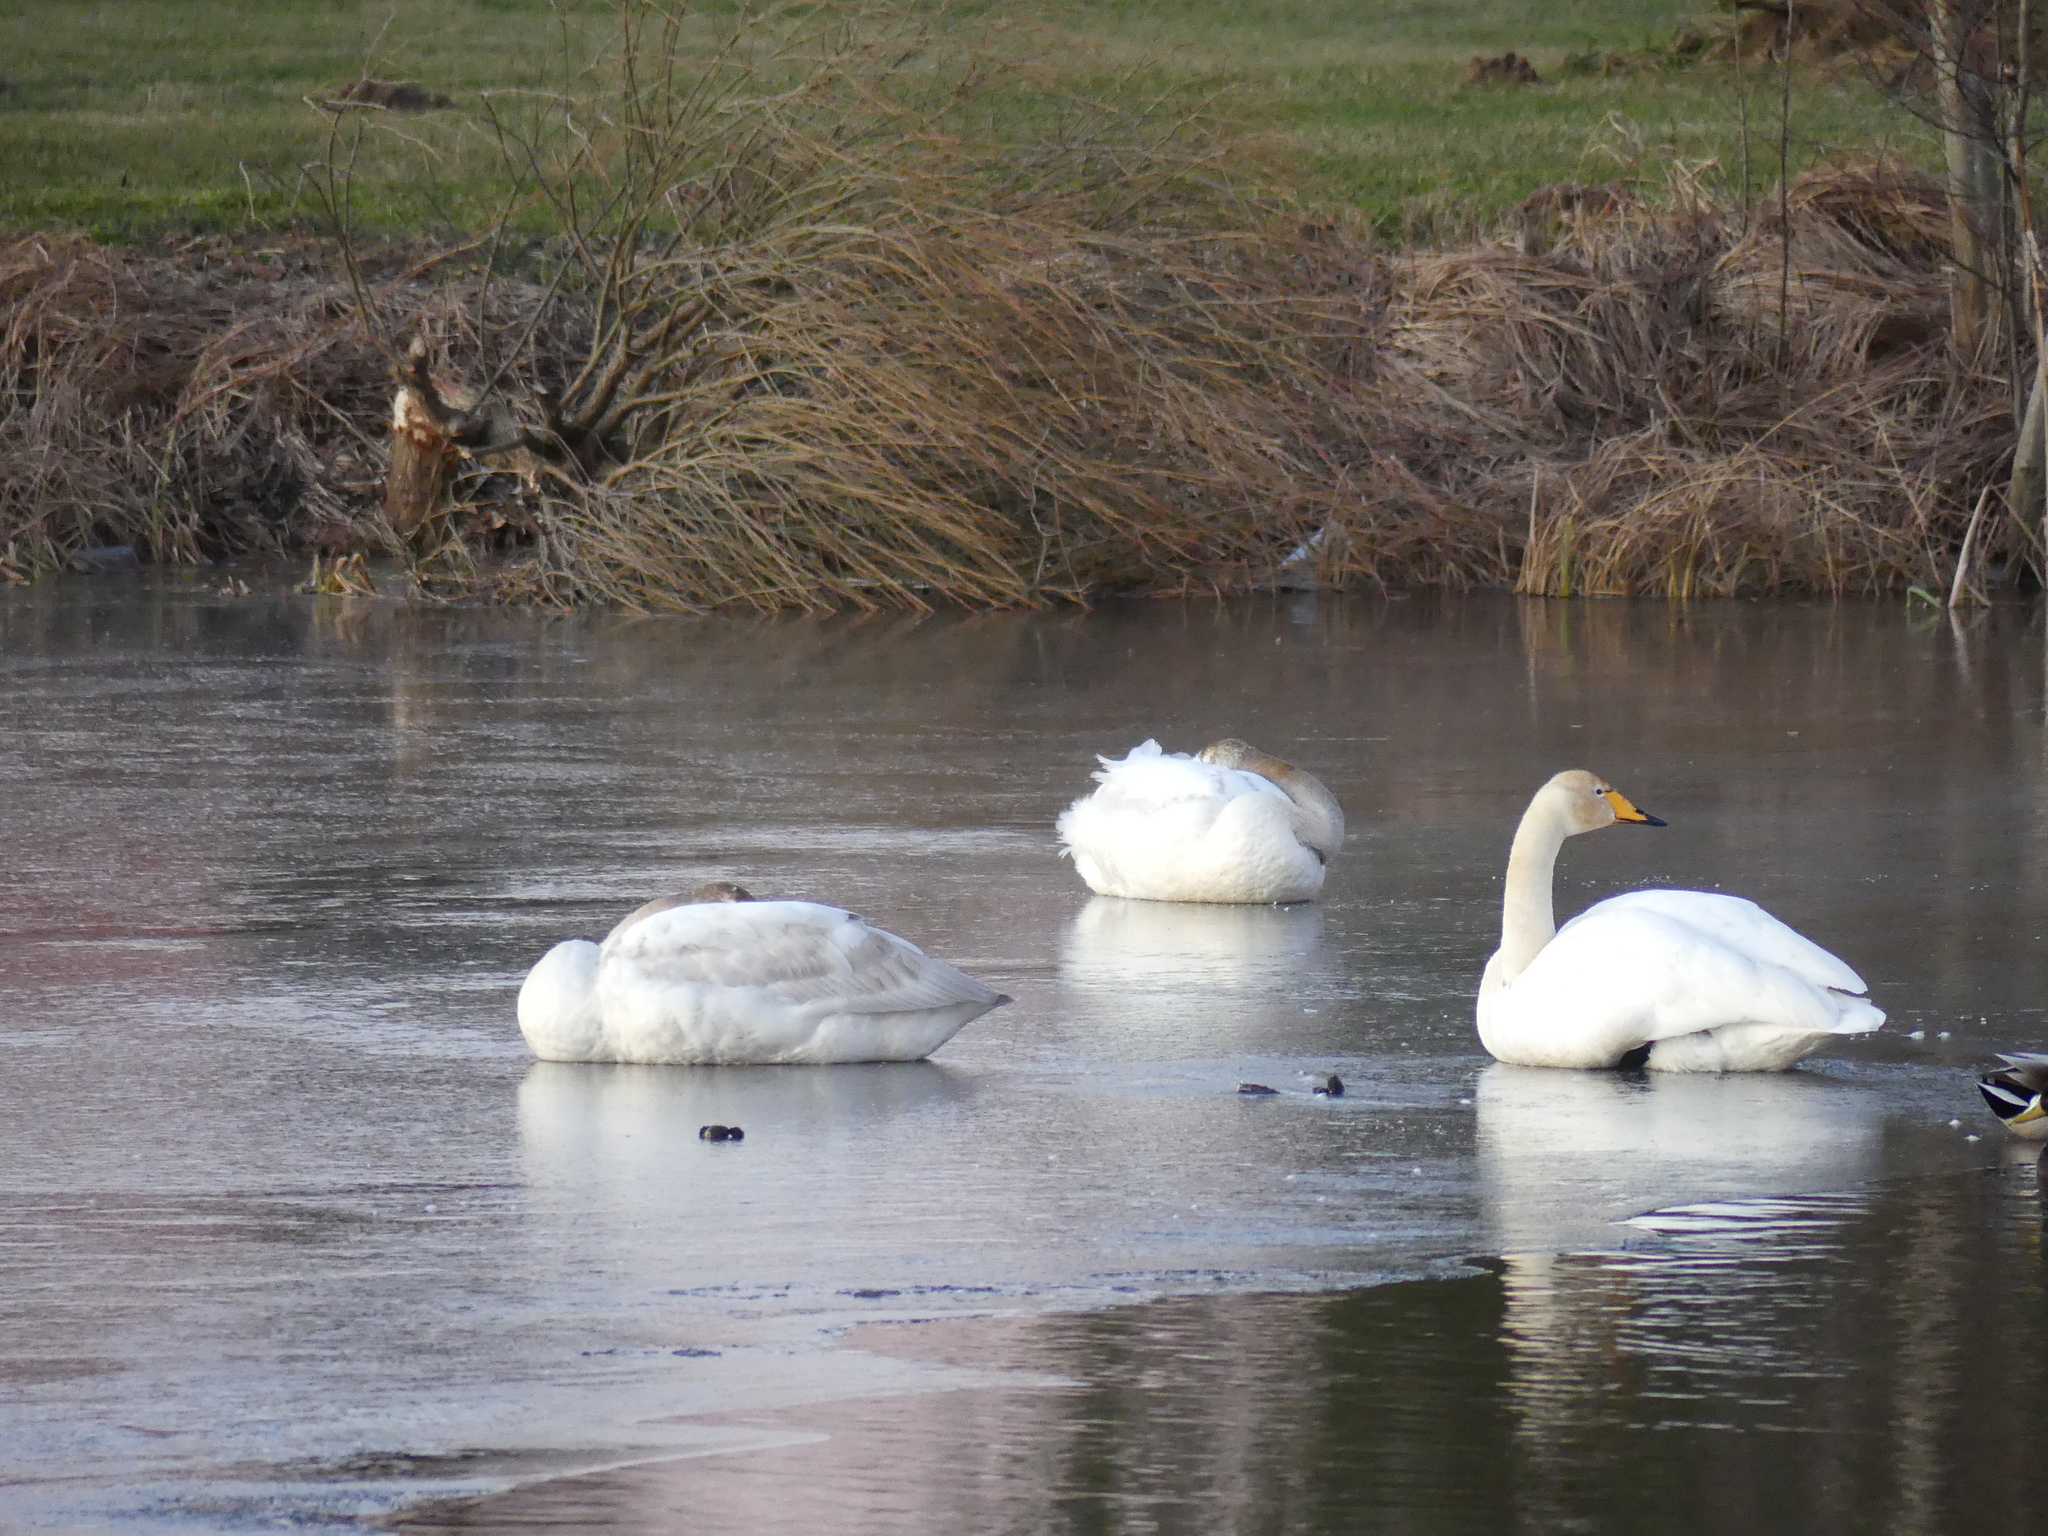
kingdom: Animalia
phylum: Chordata
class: Aves
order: Anseriformes
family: Anatidae
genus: Cygnus
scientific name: Cygnus cygnus
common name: Whooper swan
